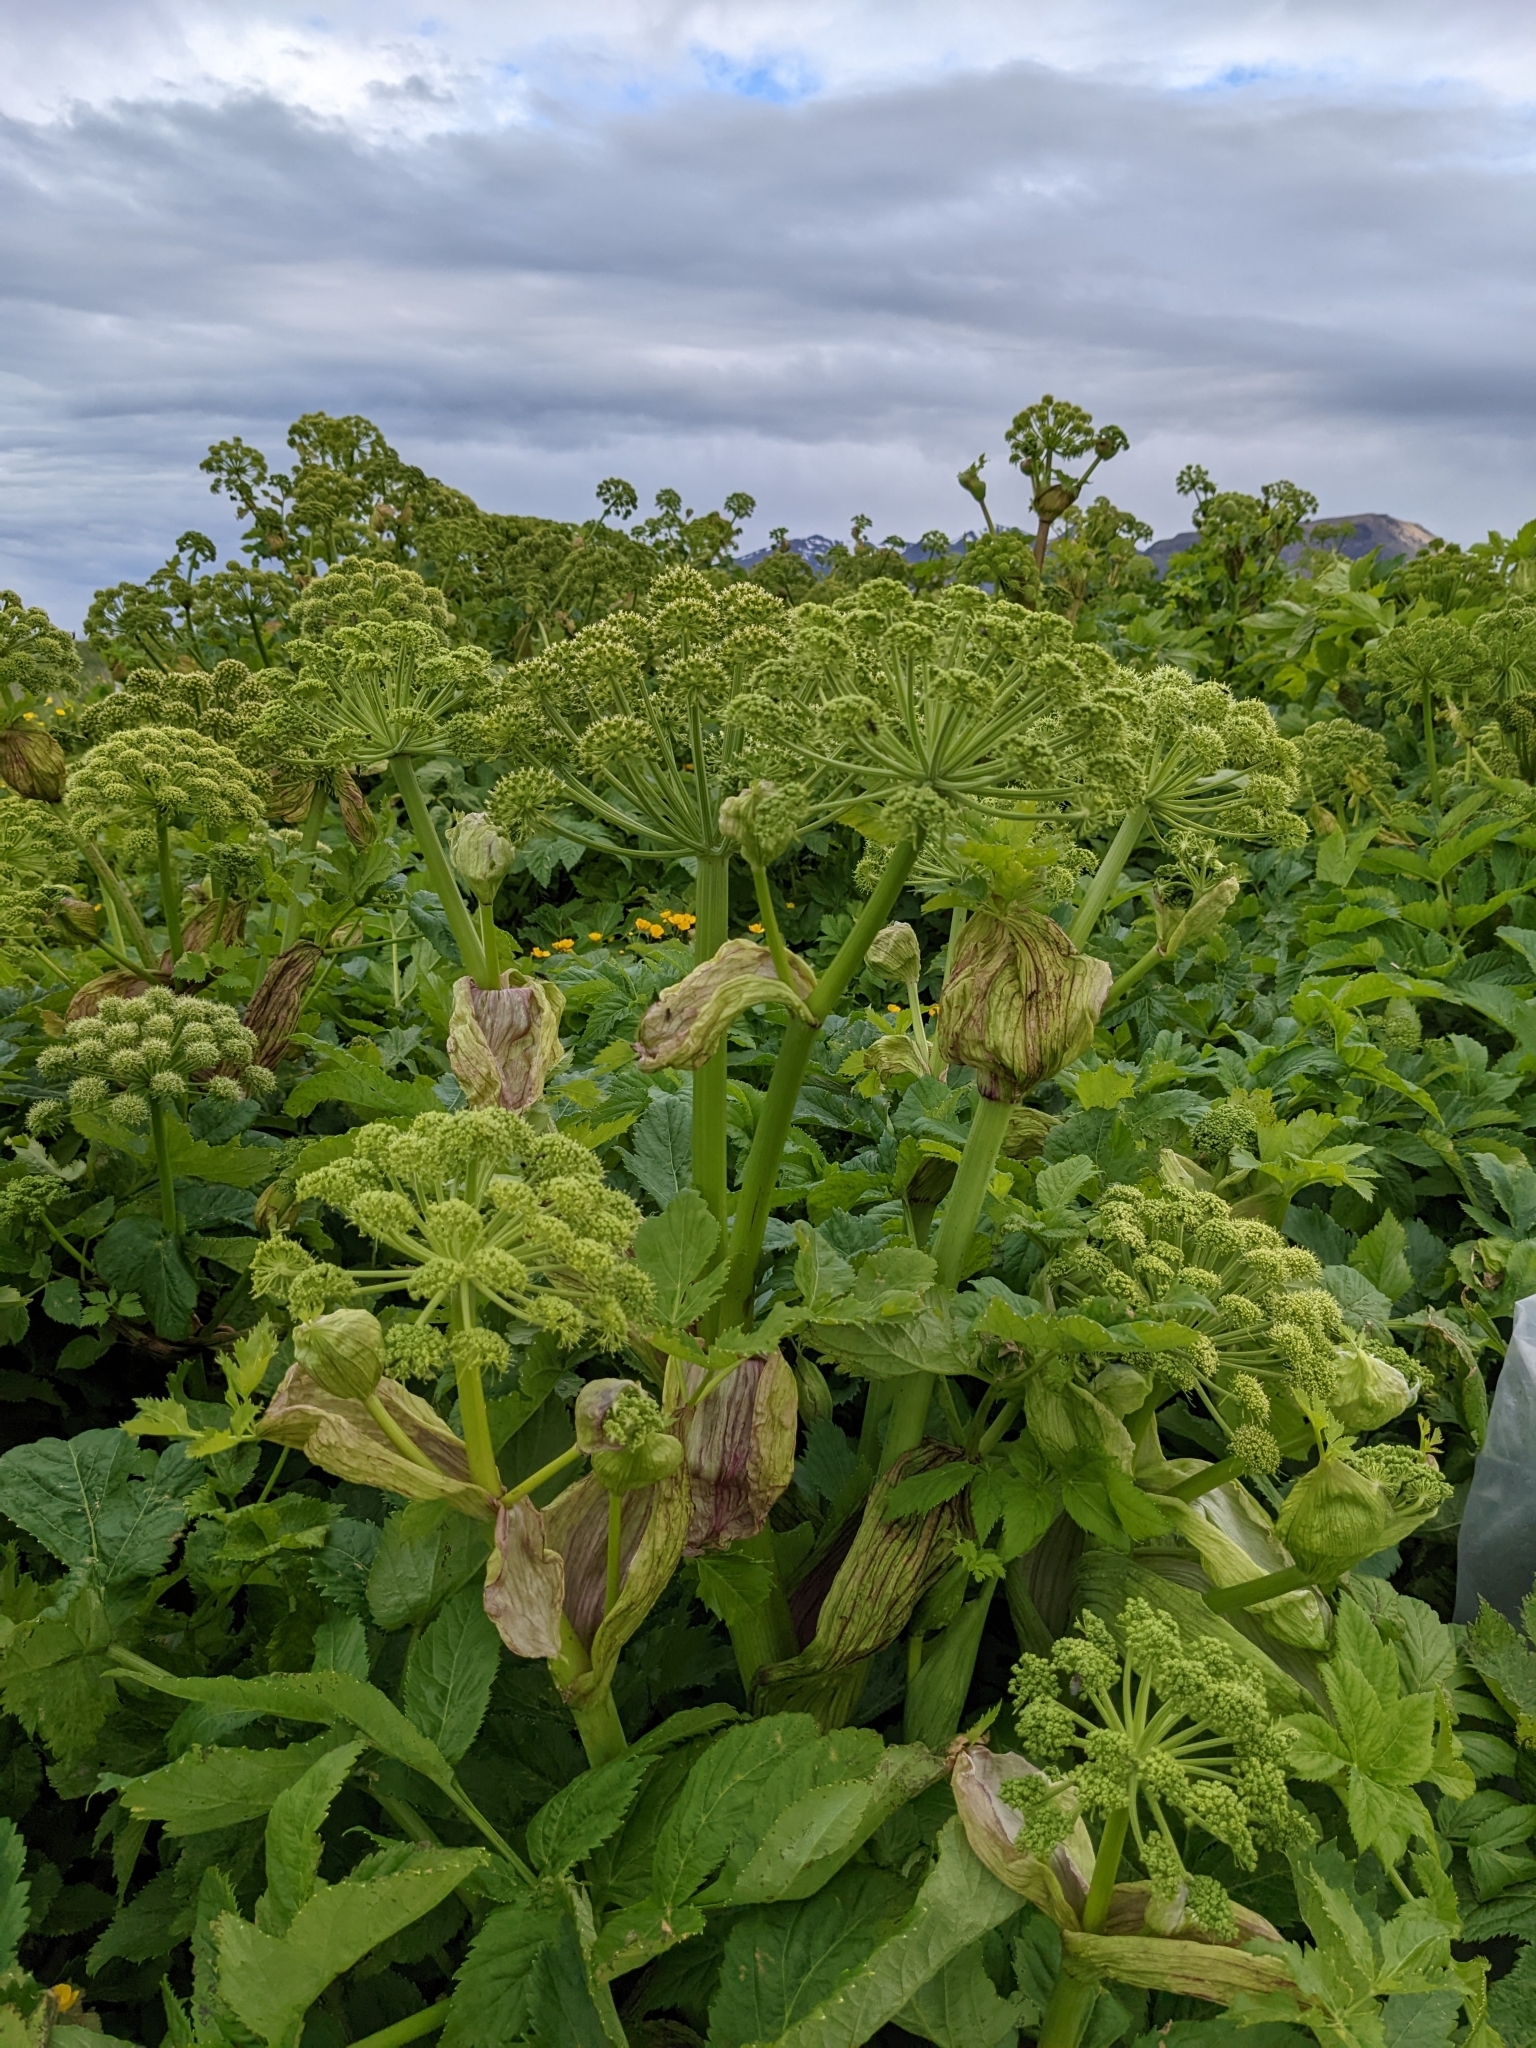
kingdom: Plantae
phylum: Tracheophyta
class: Magnoliopsida
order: Apiales
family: Apiaceae
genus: Angelica
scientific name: Angelica archangelica
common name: Garden angelica
